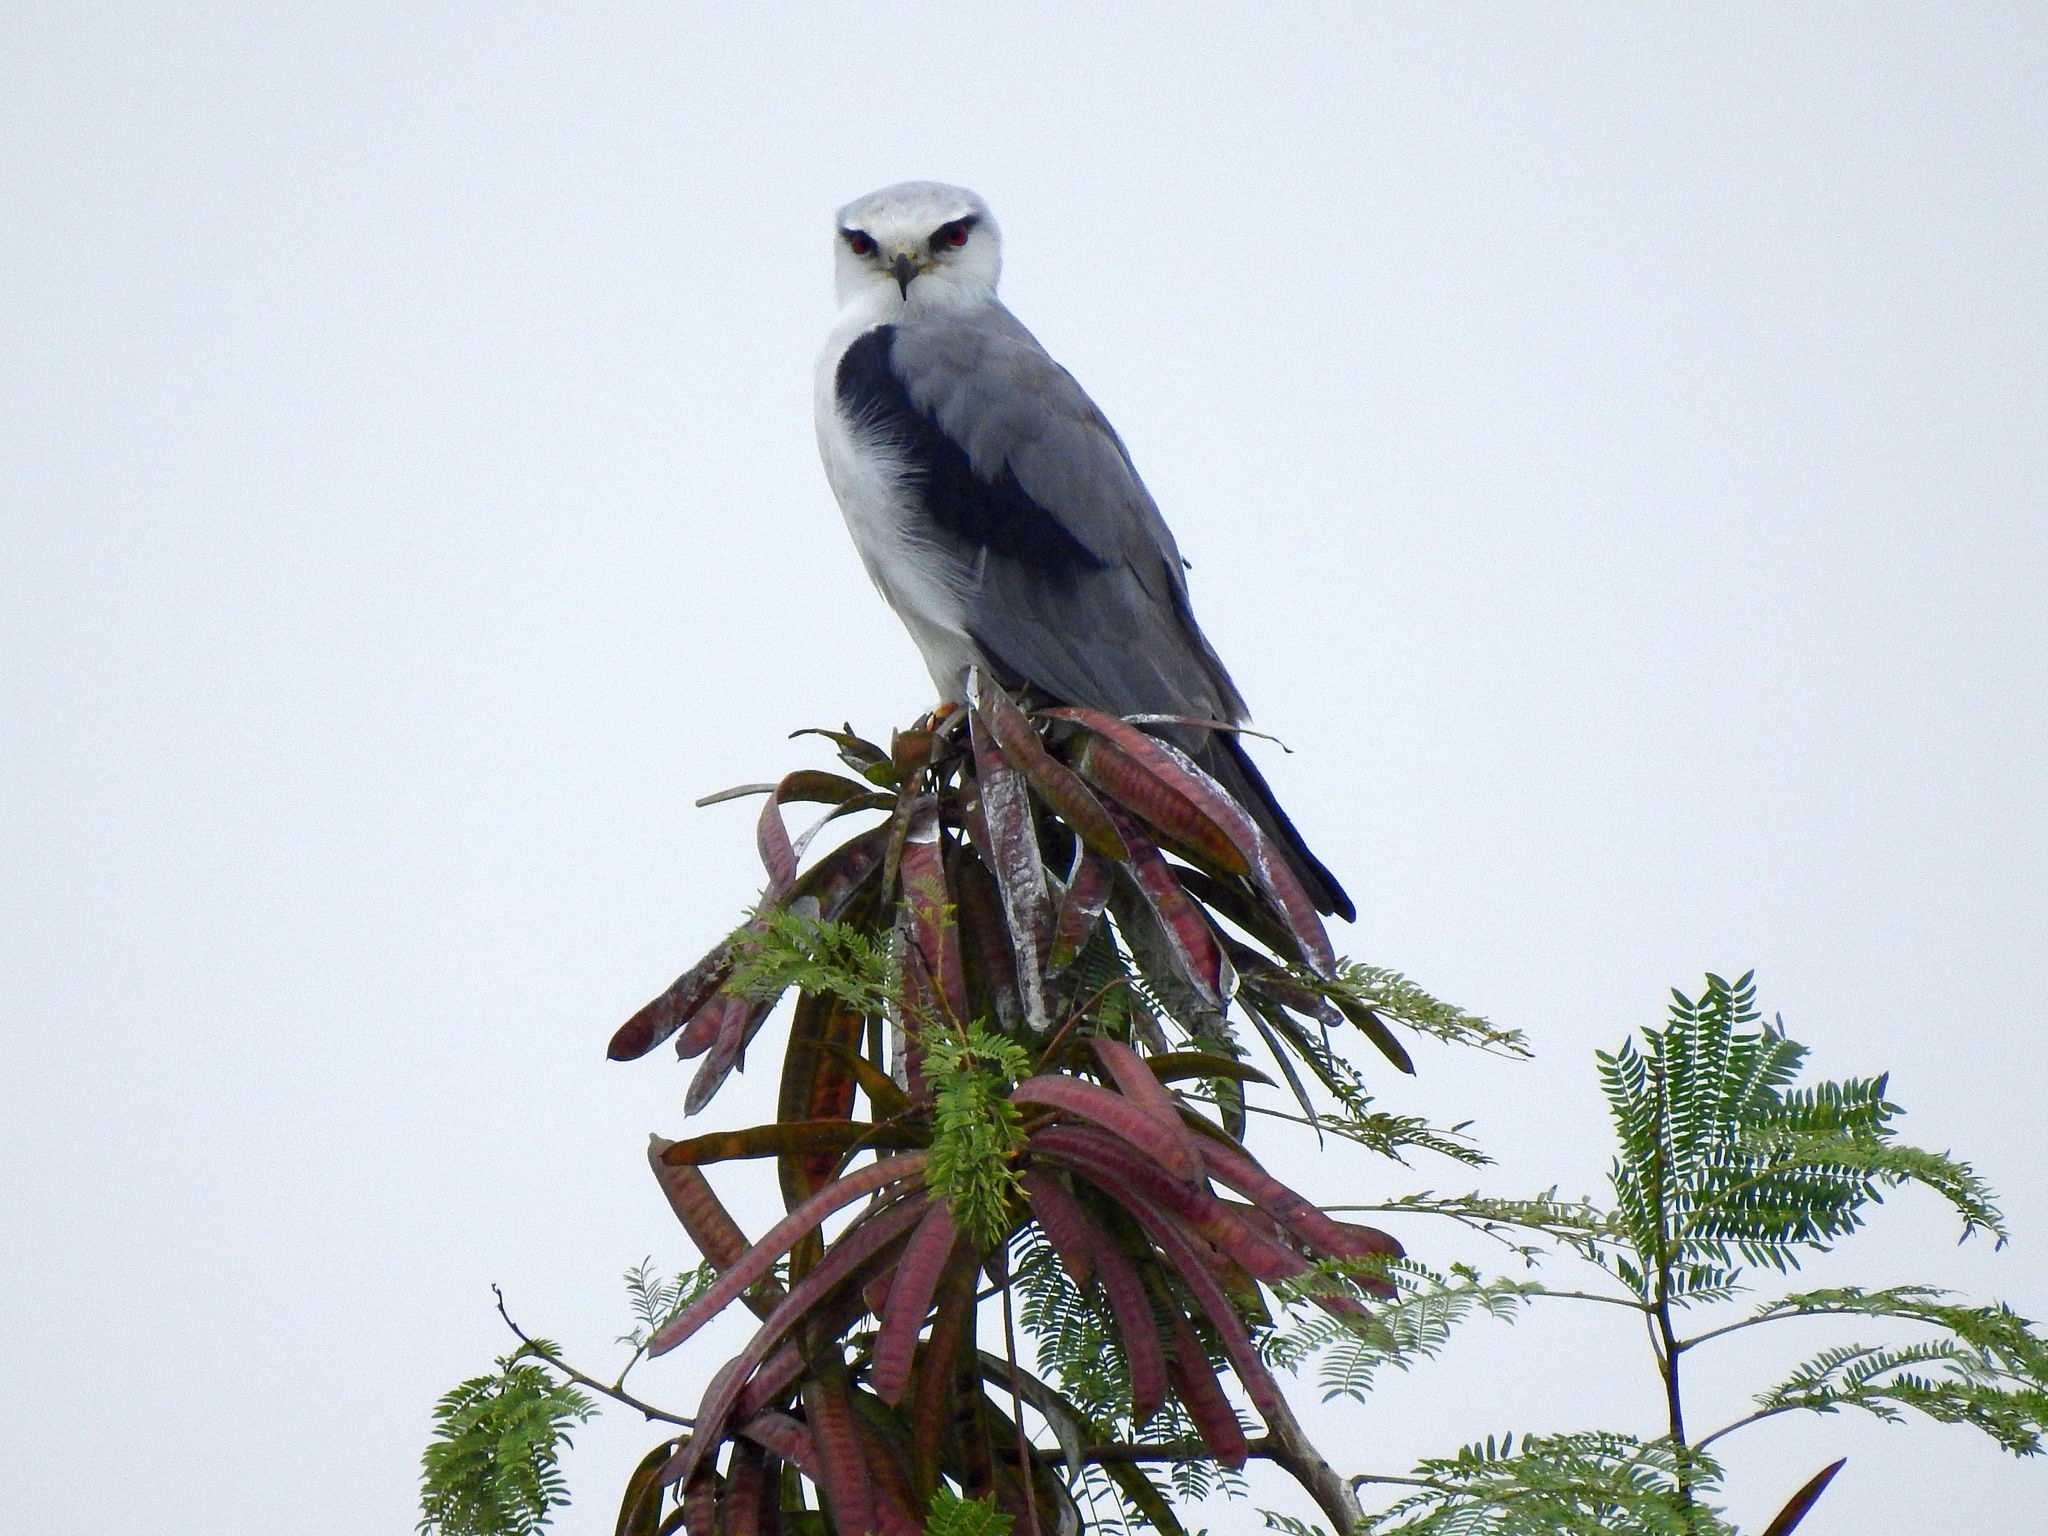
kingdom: Animalia
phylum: Chordata
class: Aves
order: Accipitriformes
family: Accipitridae
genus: Elanus
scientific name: Elanus caeruleus
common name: Black-winged kite
